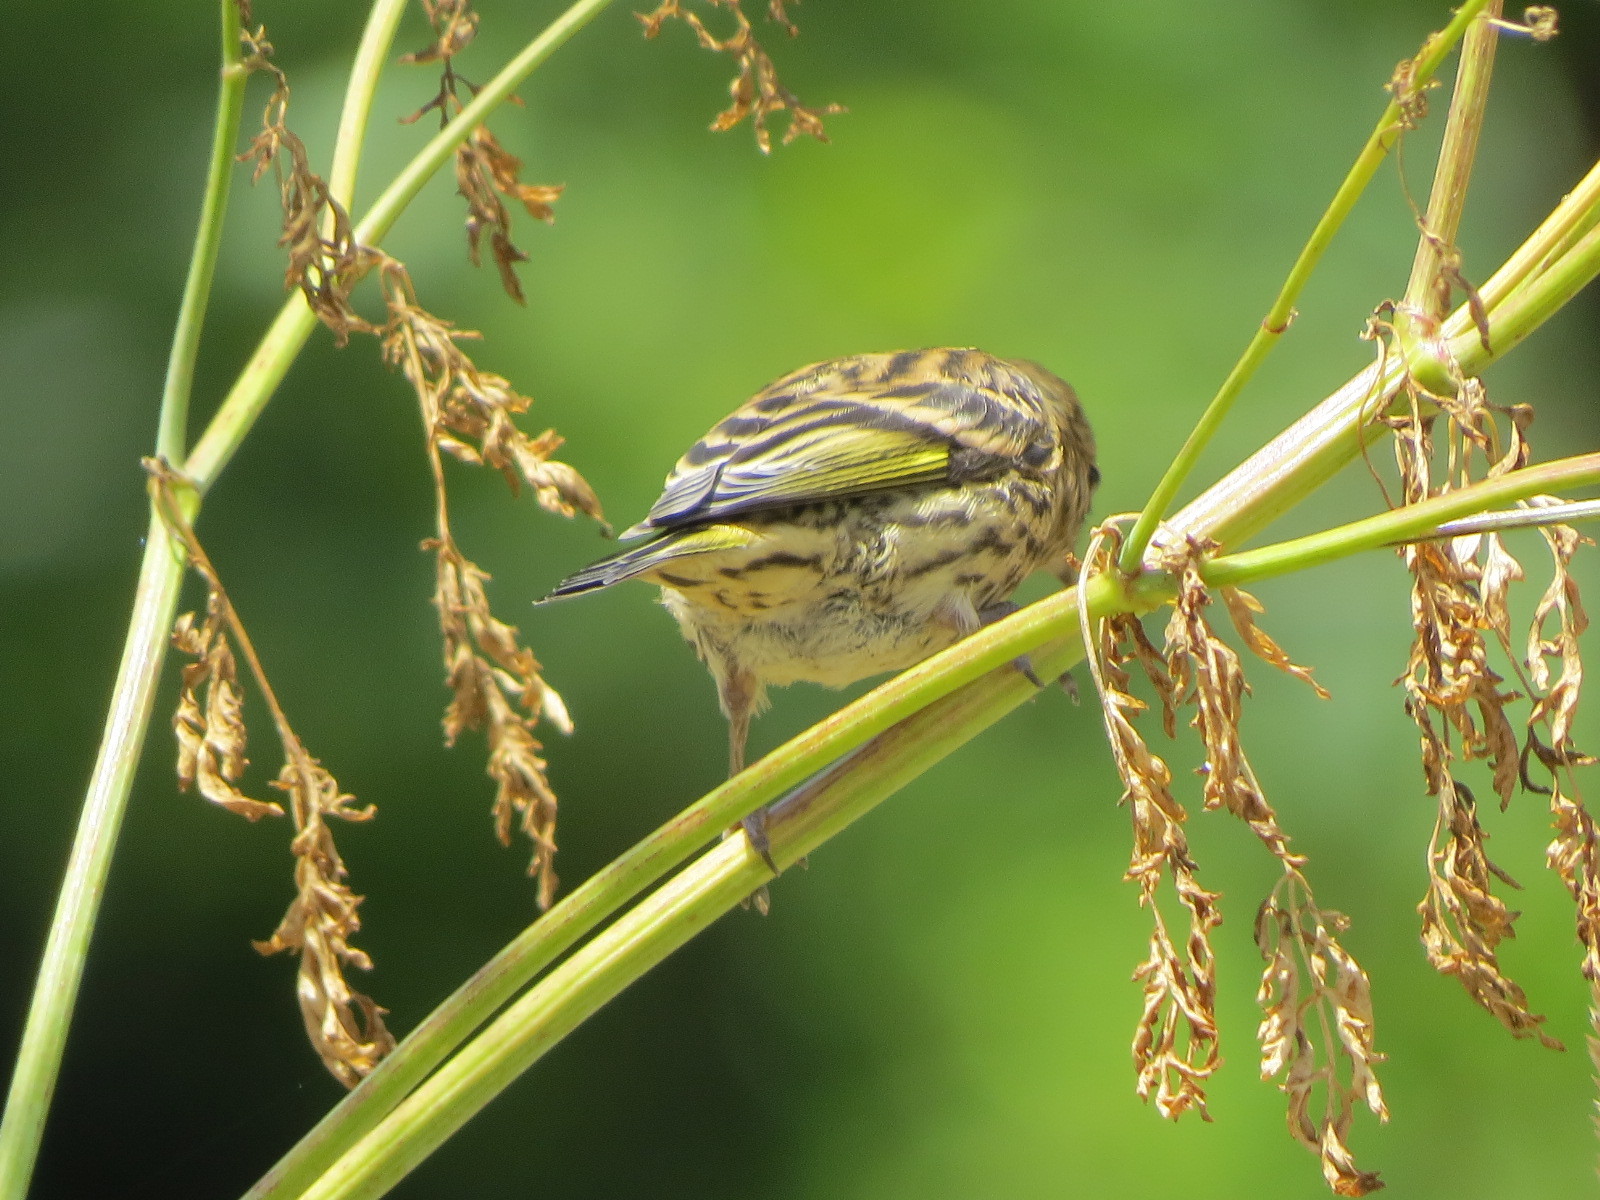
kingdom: Animalia
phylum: Chordata
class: Aves
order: Passeriformes
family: Fringillidae
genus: Spinus
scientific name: Spinus pinus
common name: Pine siskin
